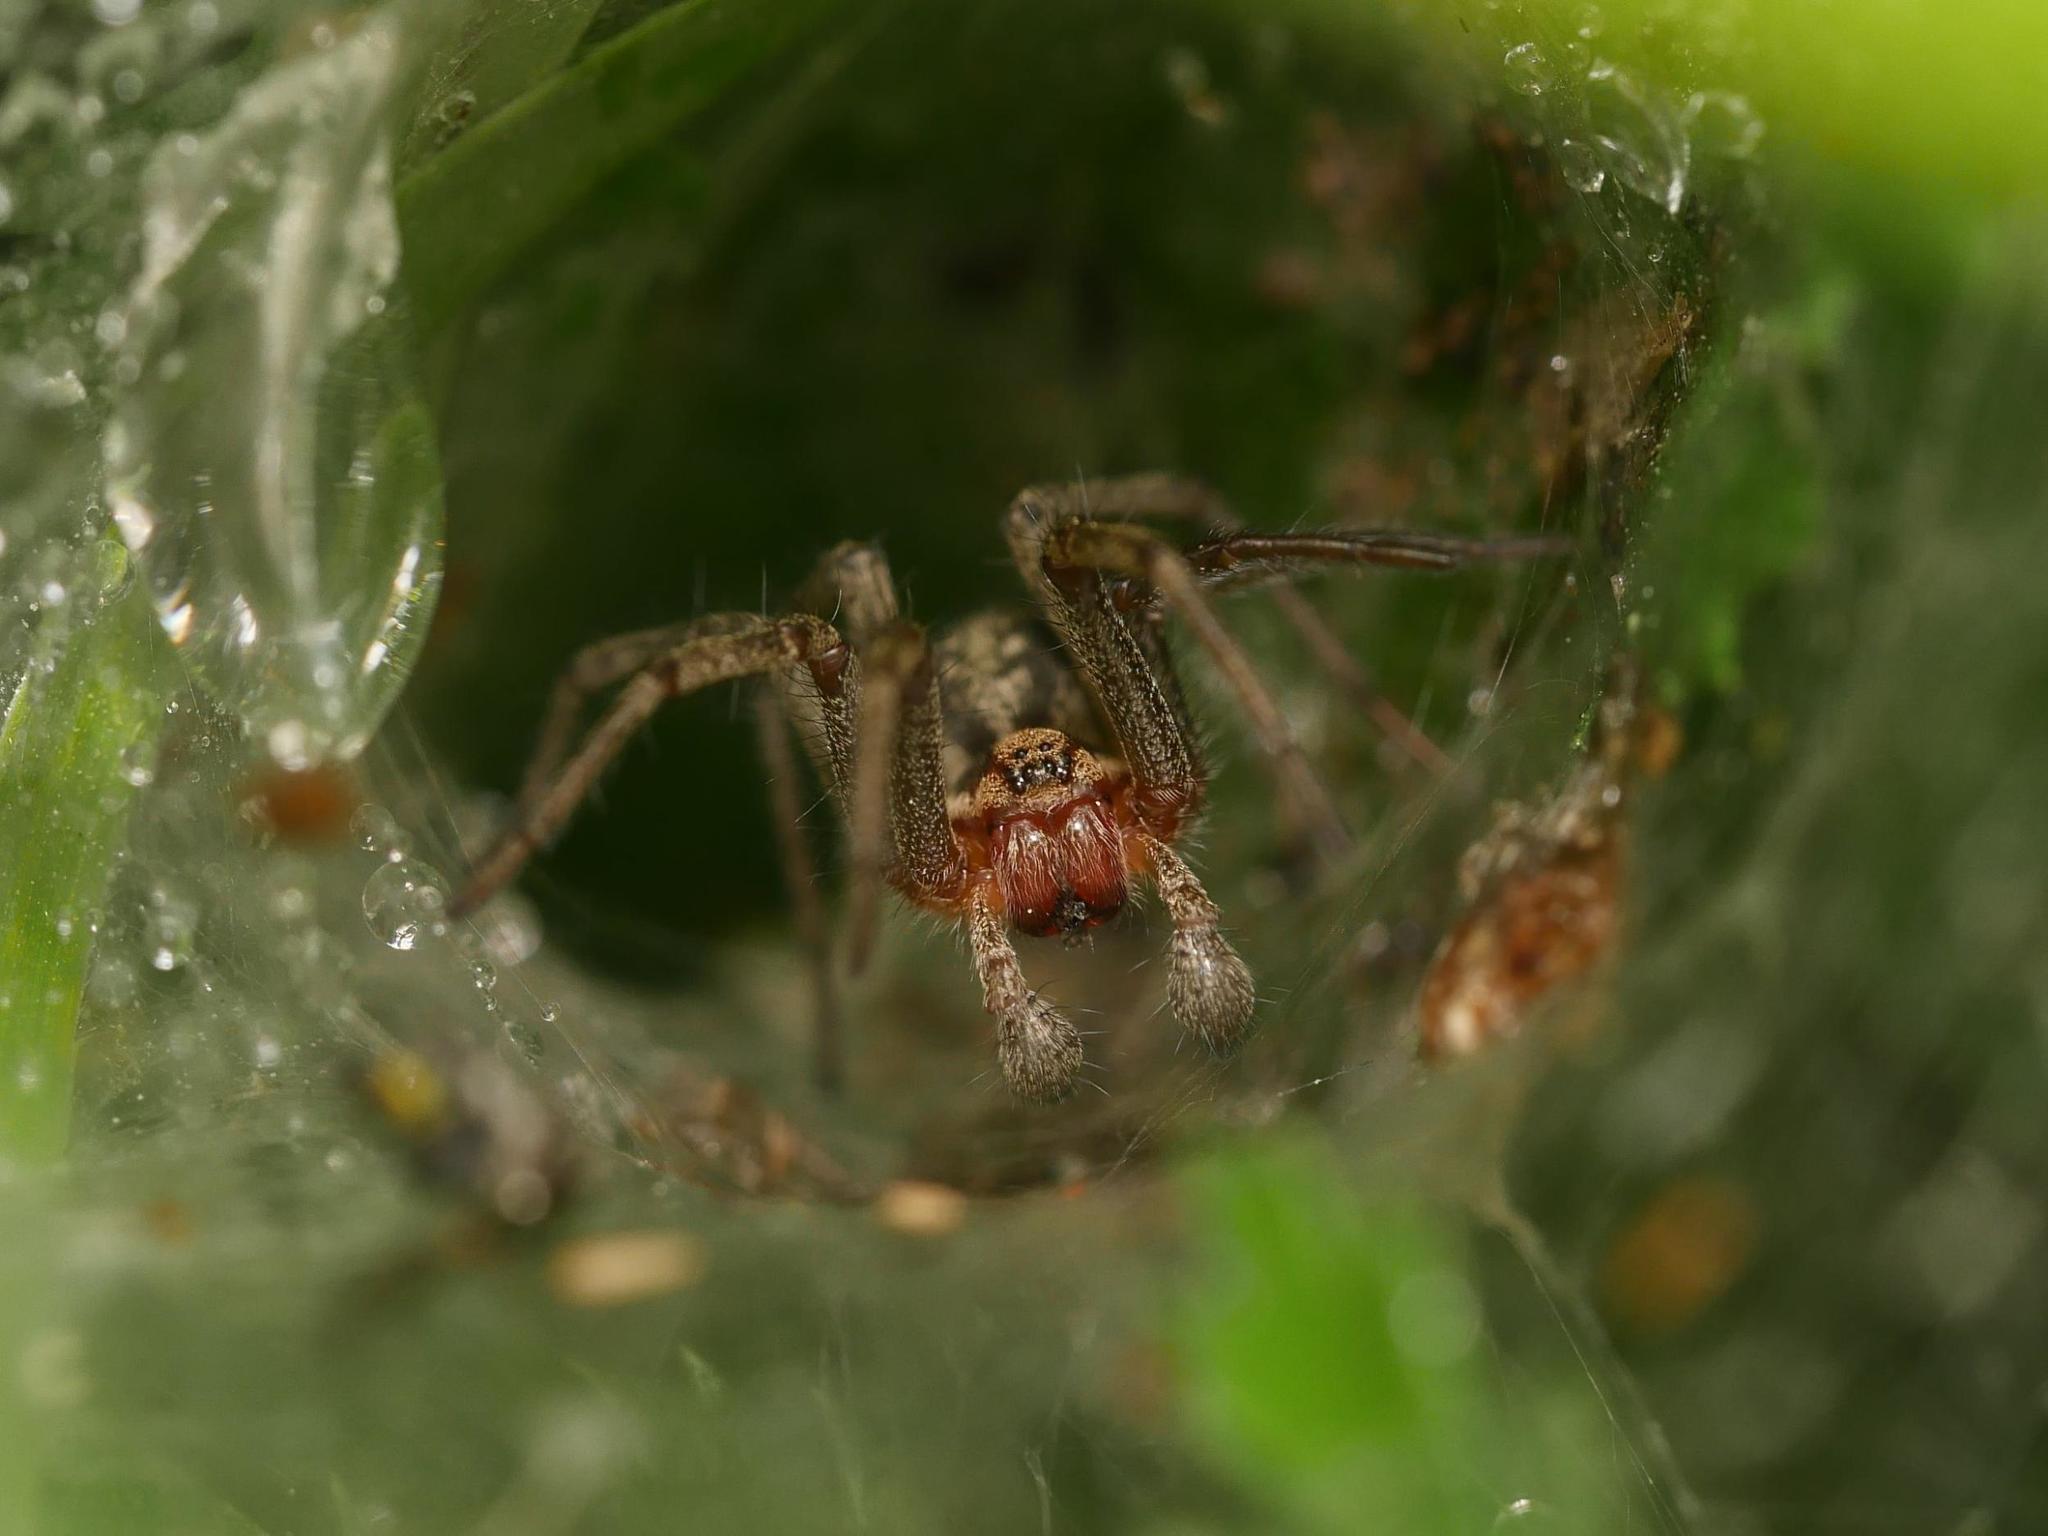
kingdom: Animalia
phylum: Arthropoda
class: Arachnida
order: Araneae
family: Agelenidae
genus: Agelena
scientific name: Agelena labyrinthica
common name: Labyrinth spider
